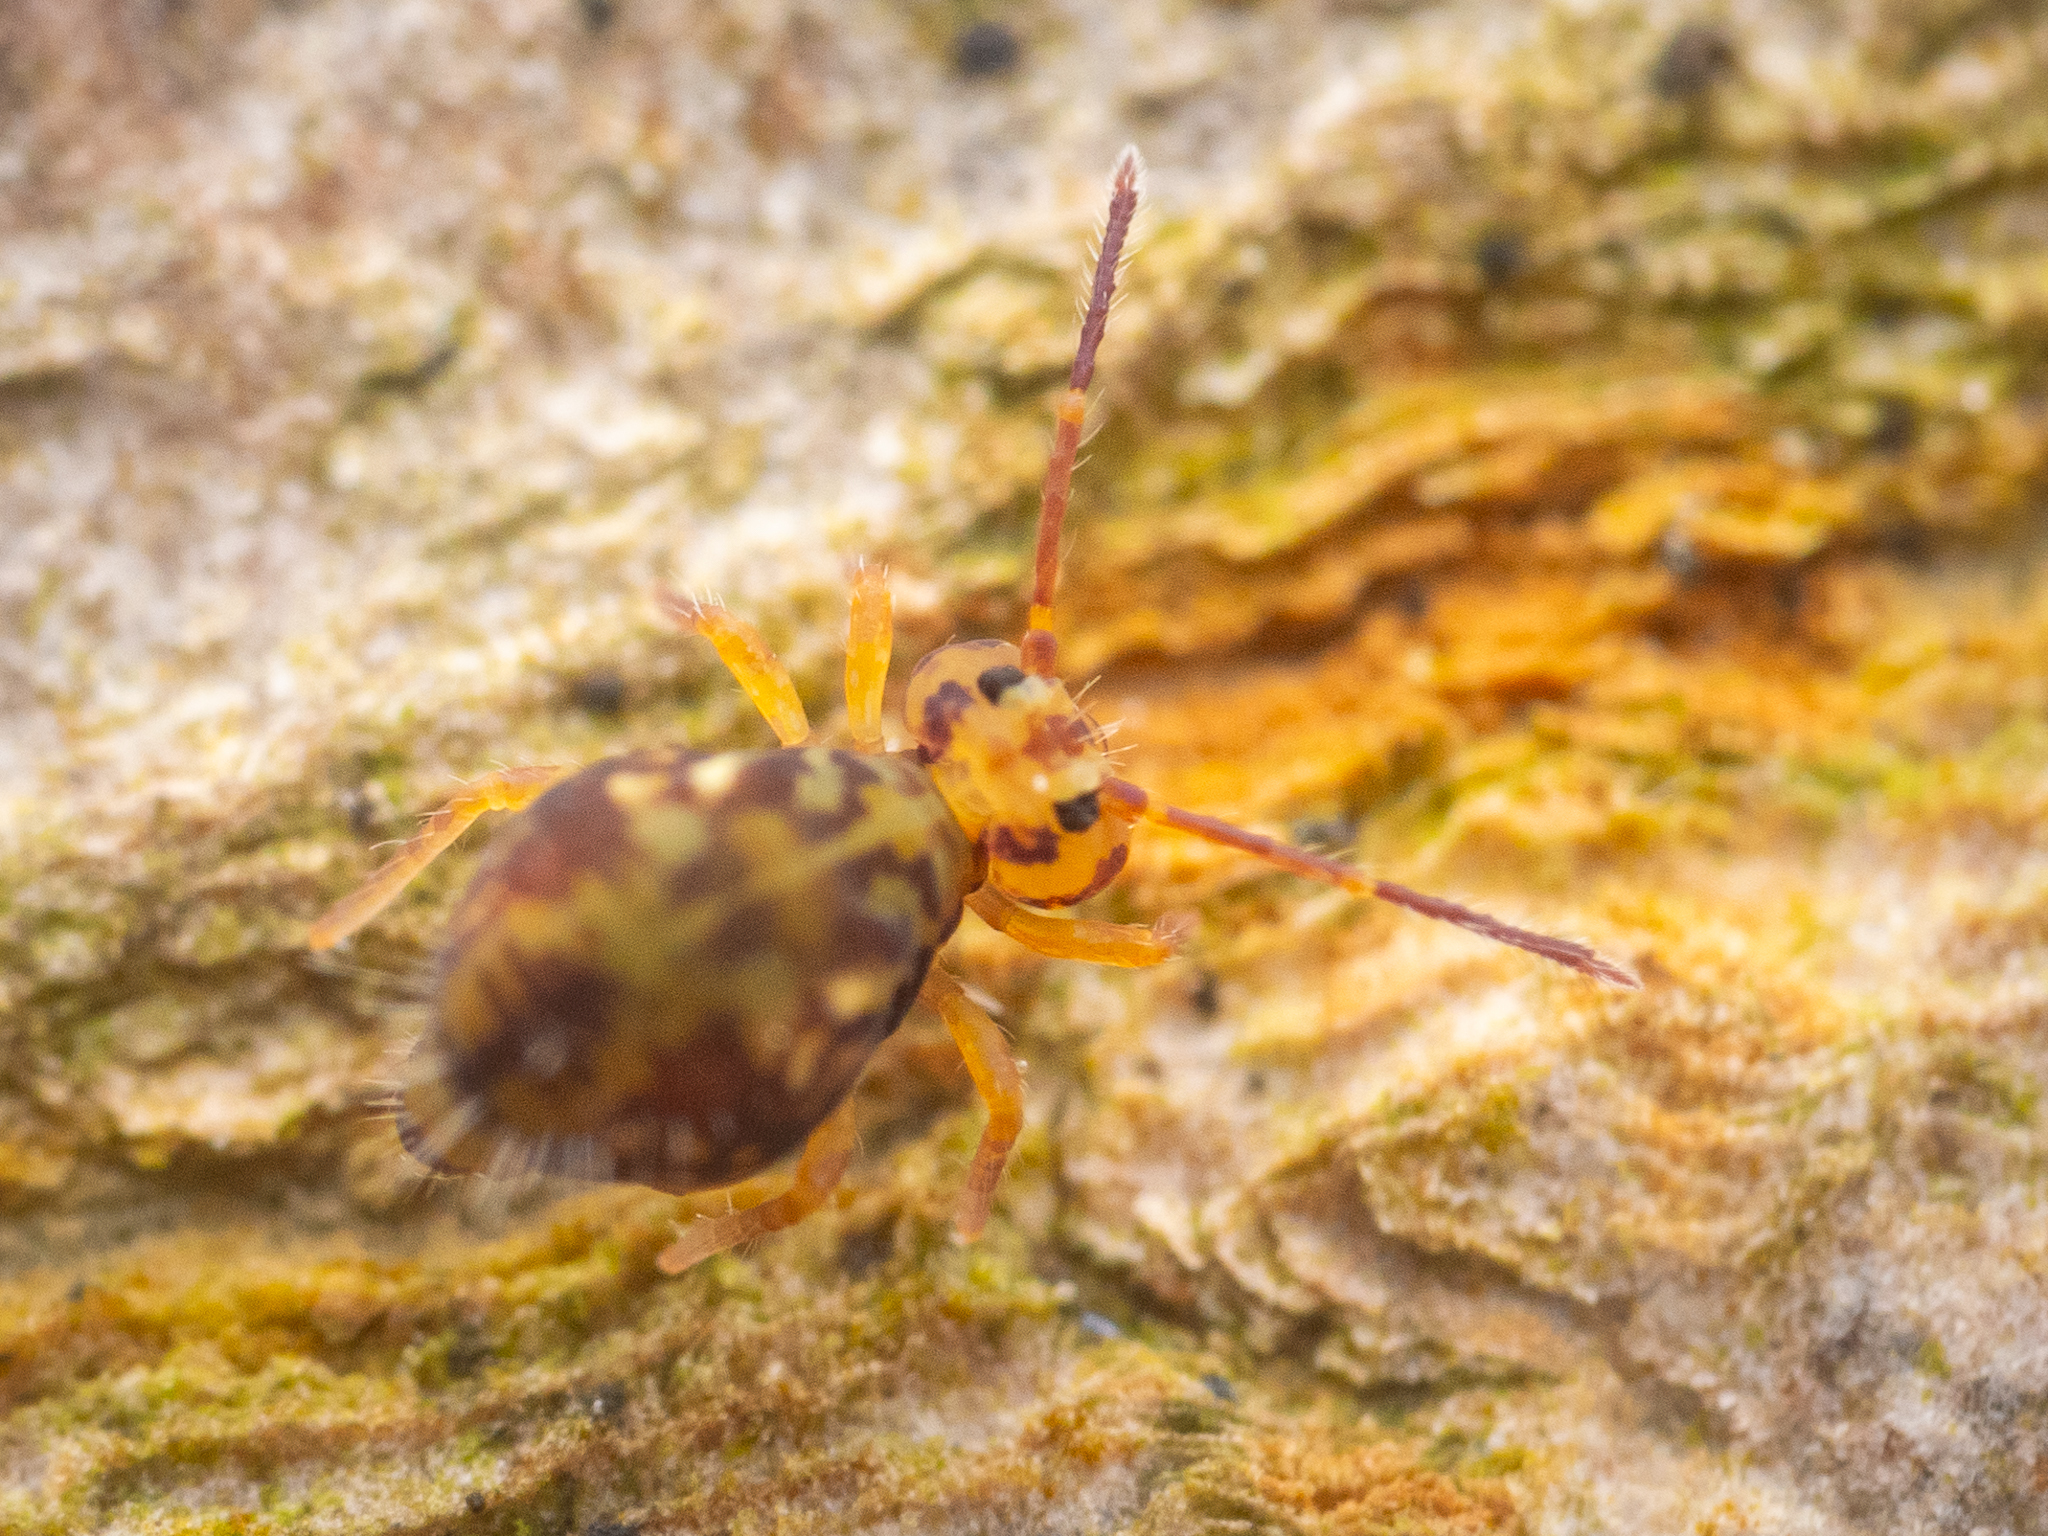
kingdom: Animalia
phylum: Arthropoda
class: Collembola
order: Symphypleona
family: Dicyrtomidae
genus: Dicyrtomina
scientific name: Dicyrtomina saundersi
